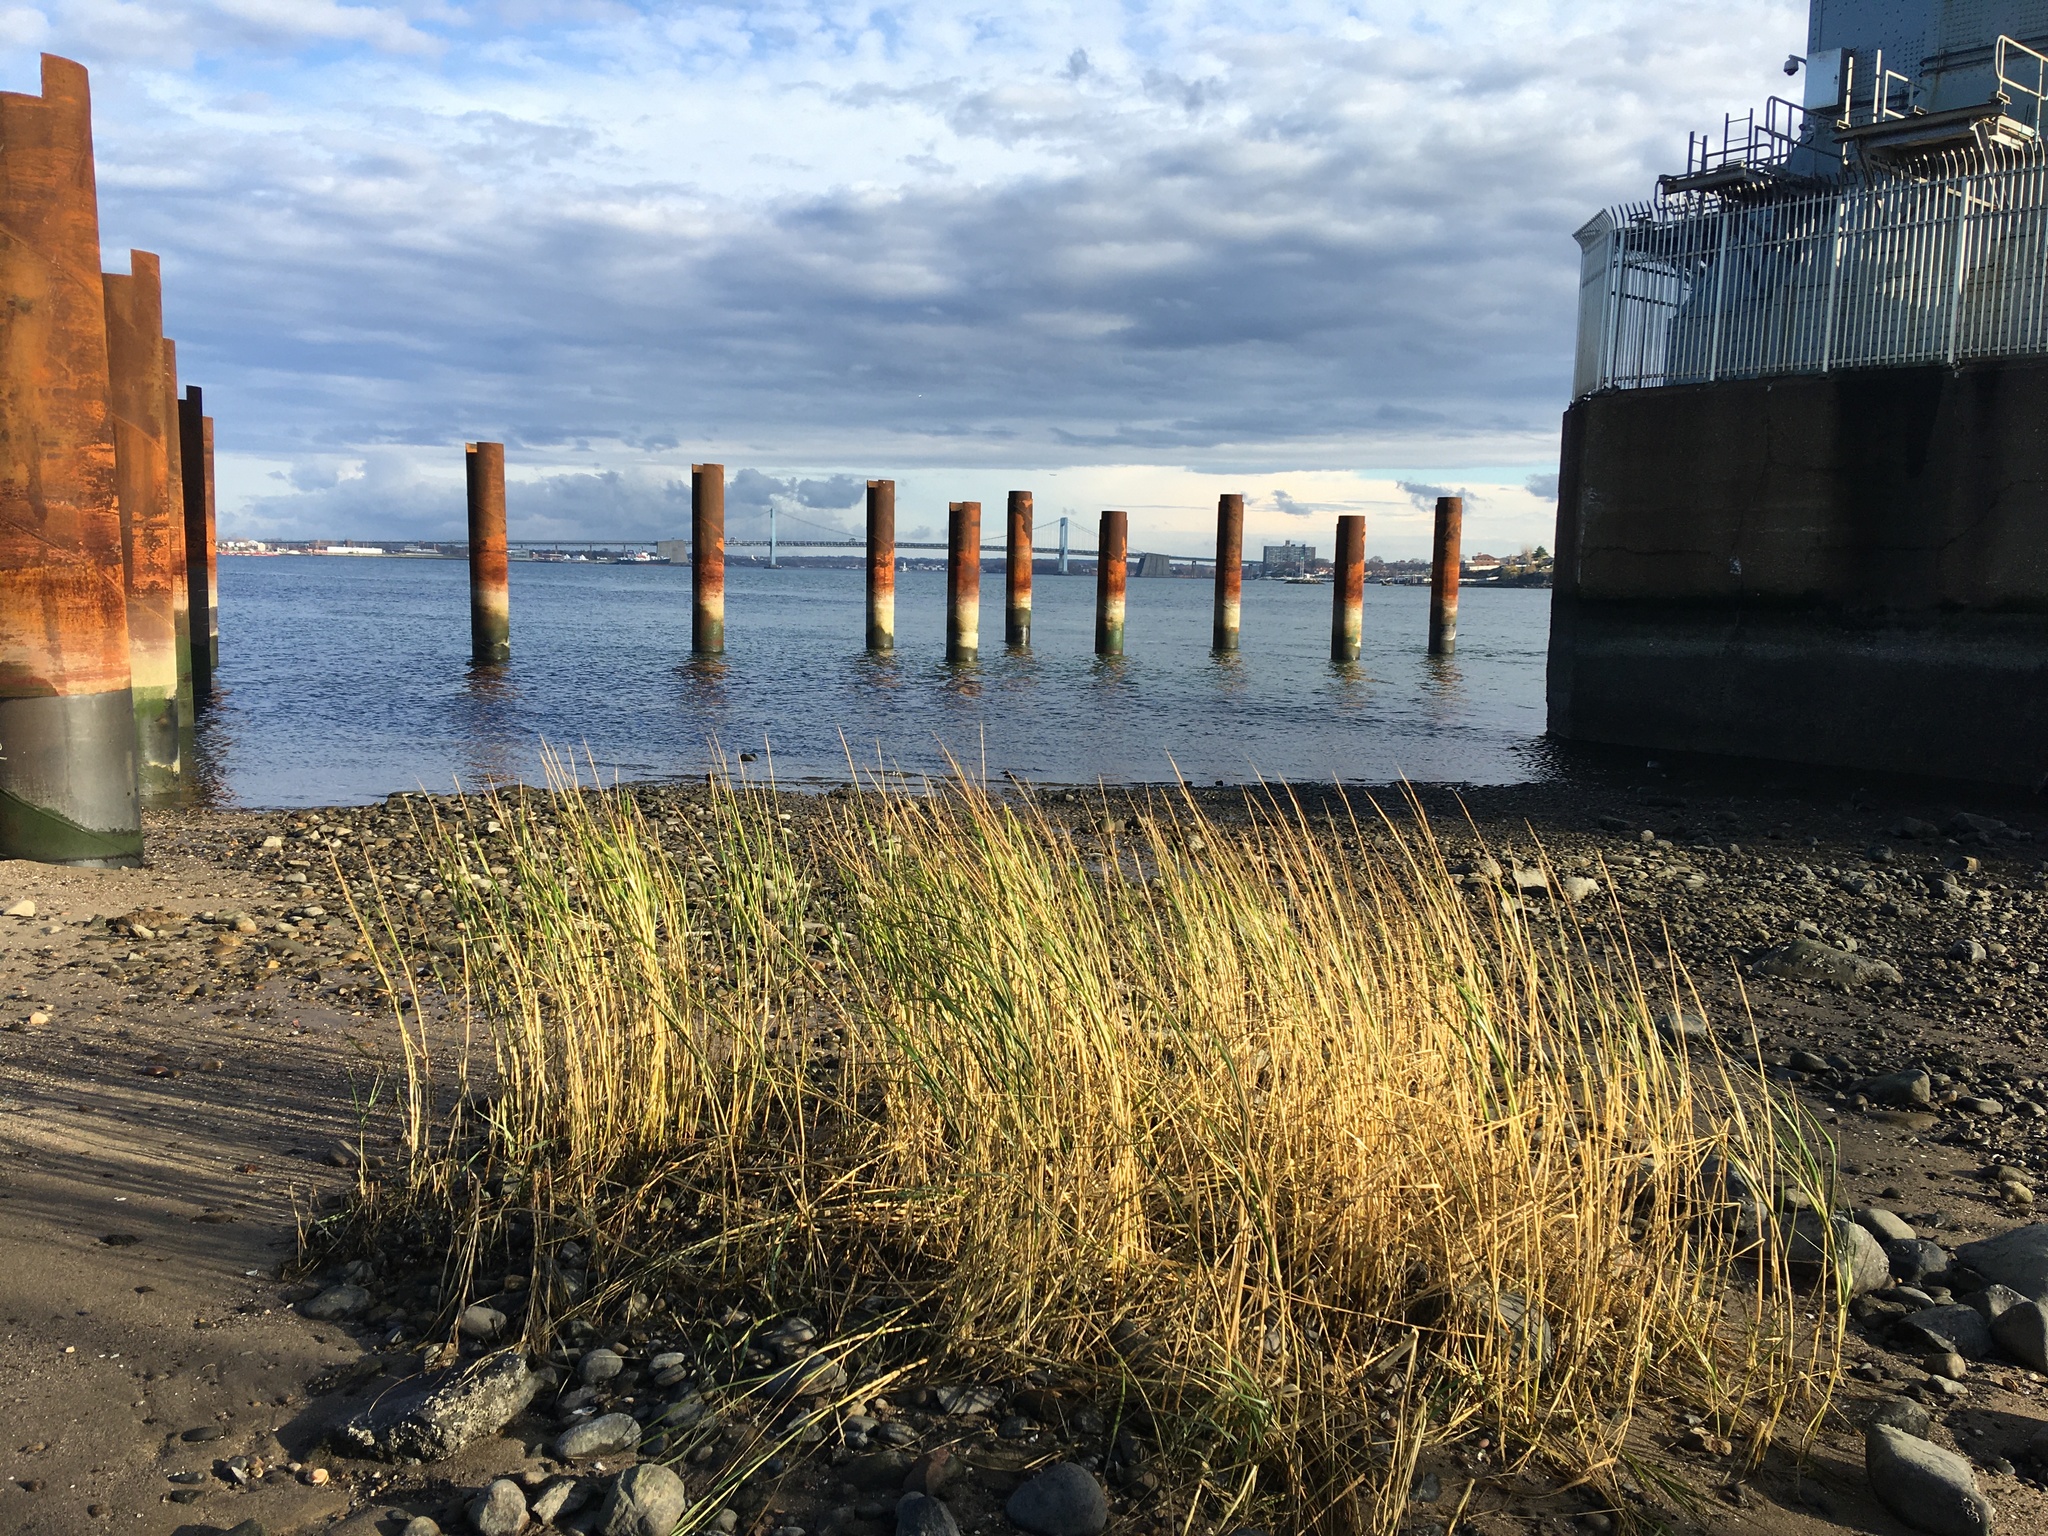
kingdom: Plantae
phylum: Tracheophyta
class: Liliopsida
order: Poales
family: Poaceae
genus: Sporobolus
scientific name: Sporobolus alterniflorus
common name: Atlantic cordgrass
